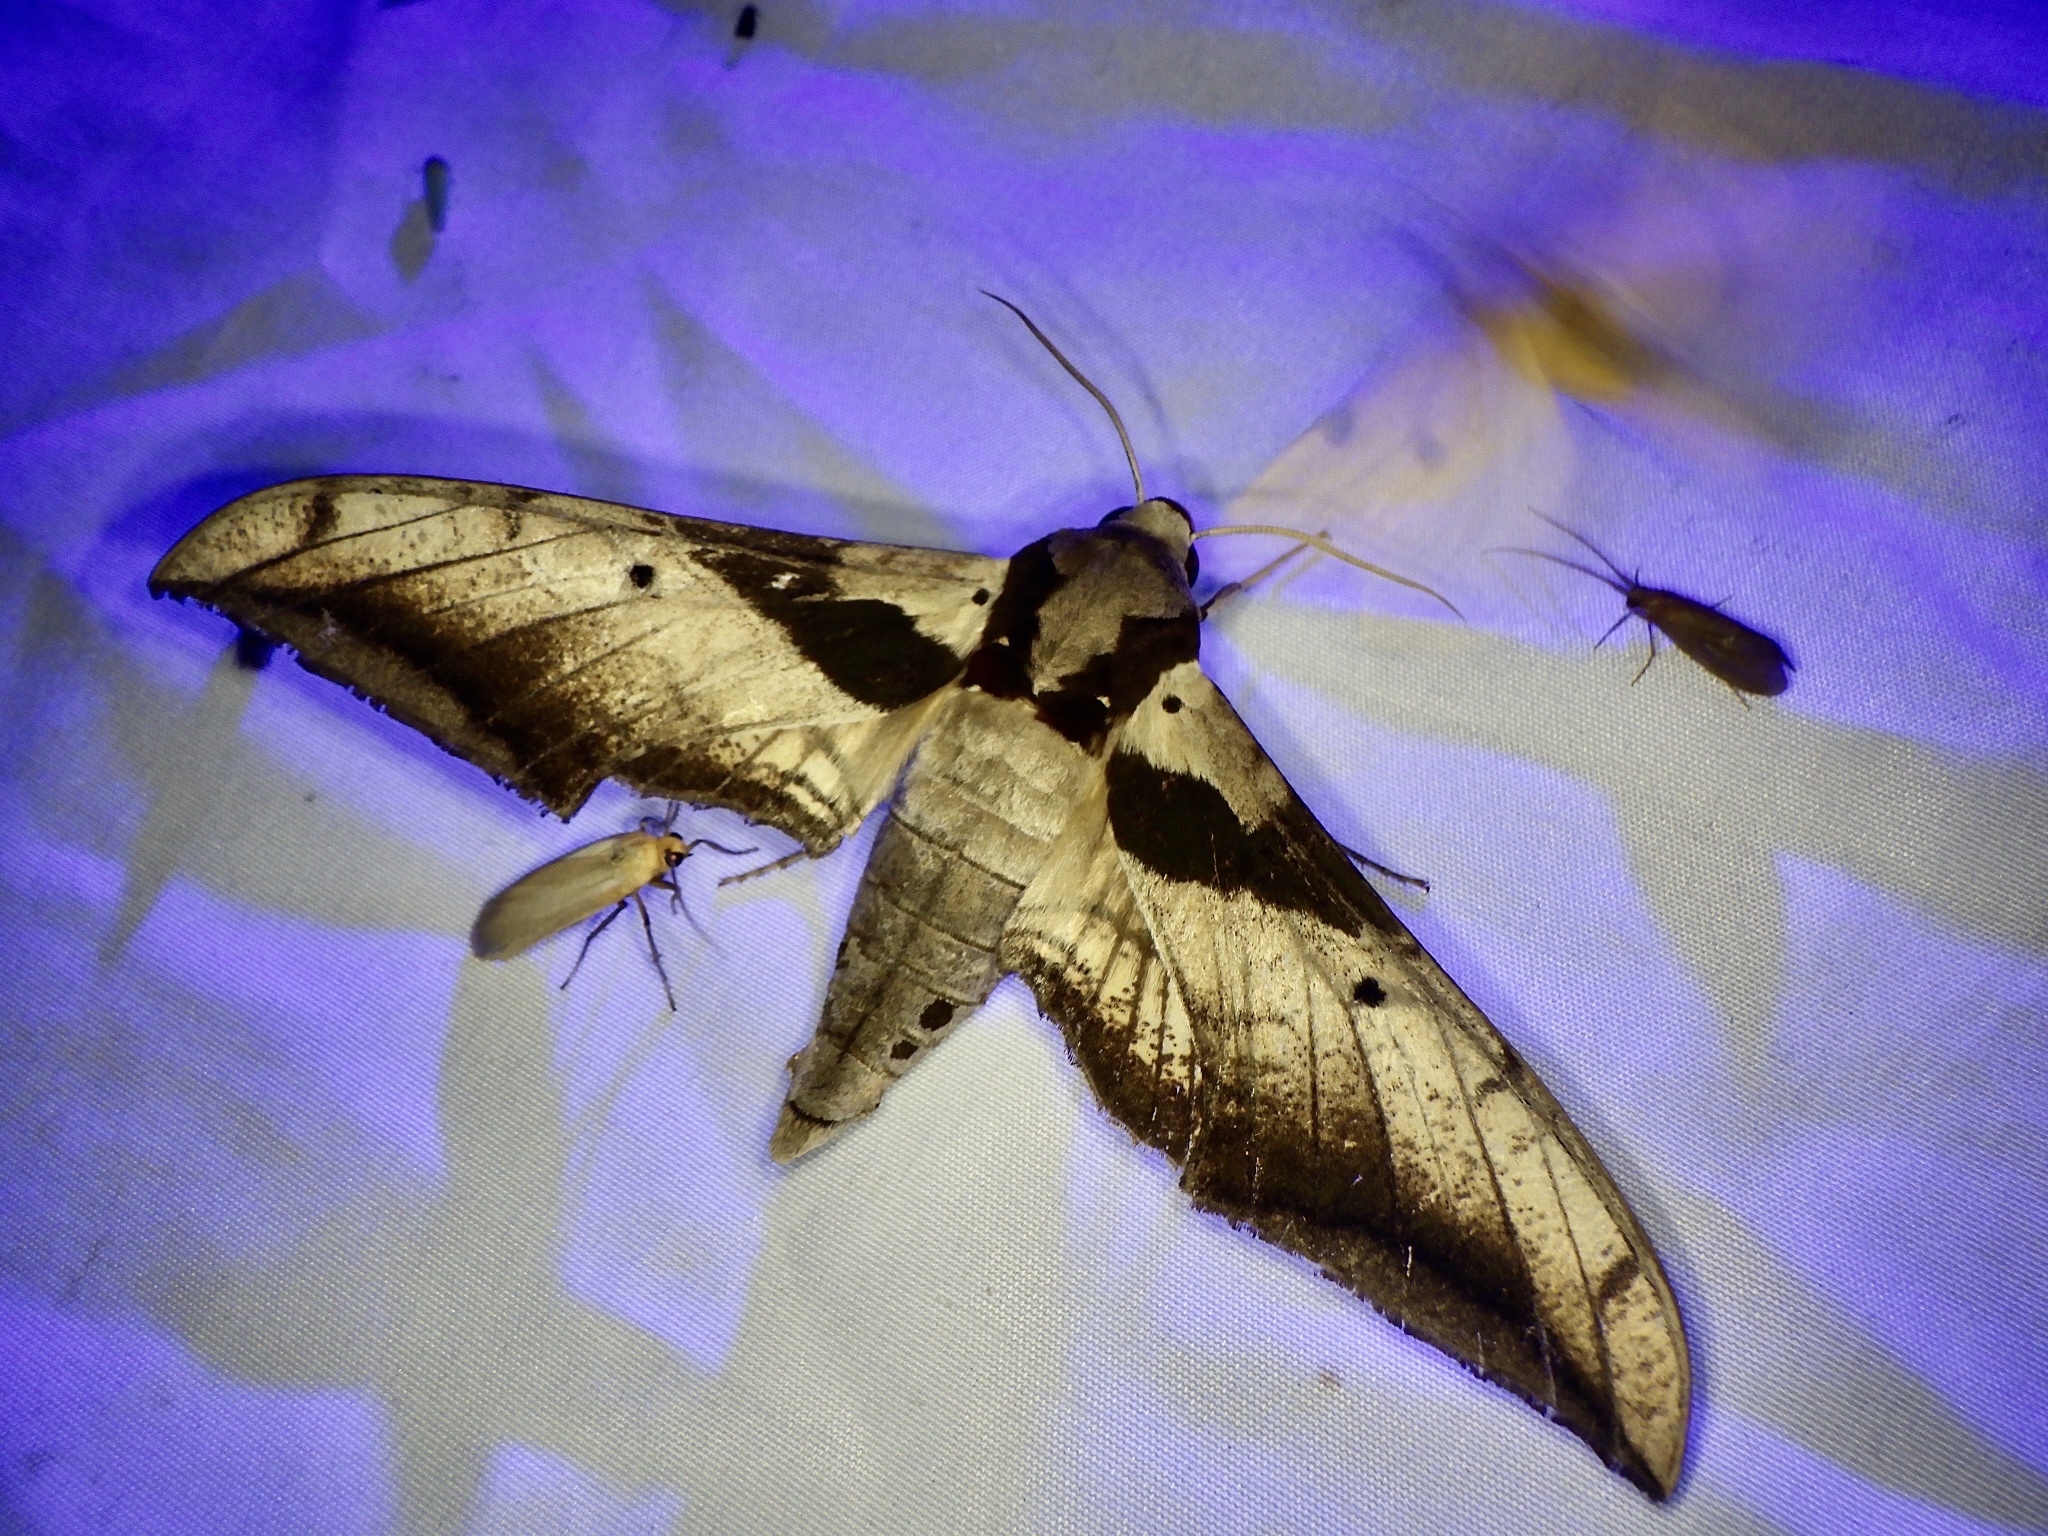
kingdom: Animalia
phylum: Arthropoda
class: Insecta
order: Lepidoptera
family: Sphingidae
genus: Ambulyx
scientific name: Ambulyx japonica
